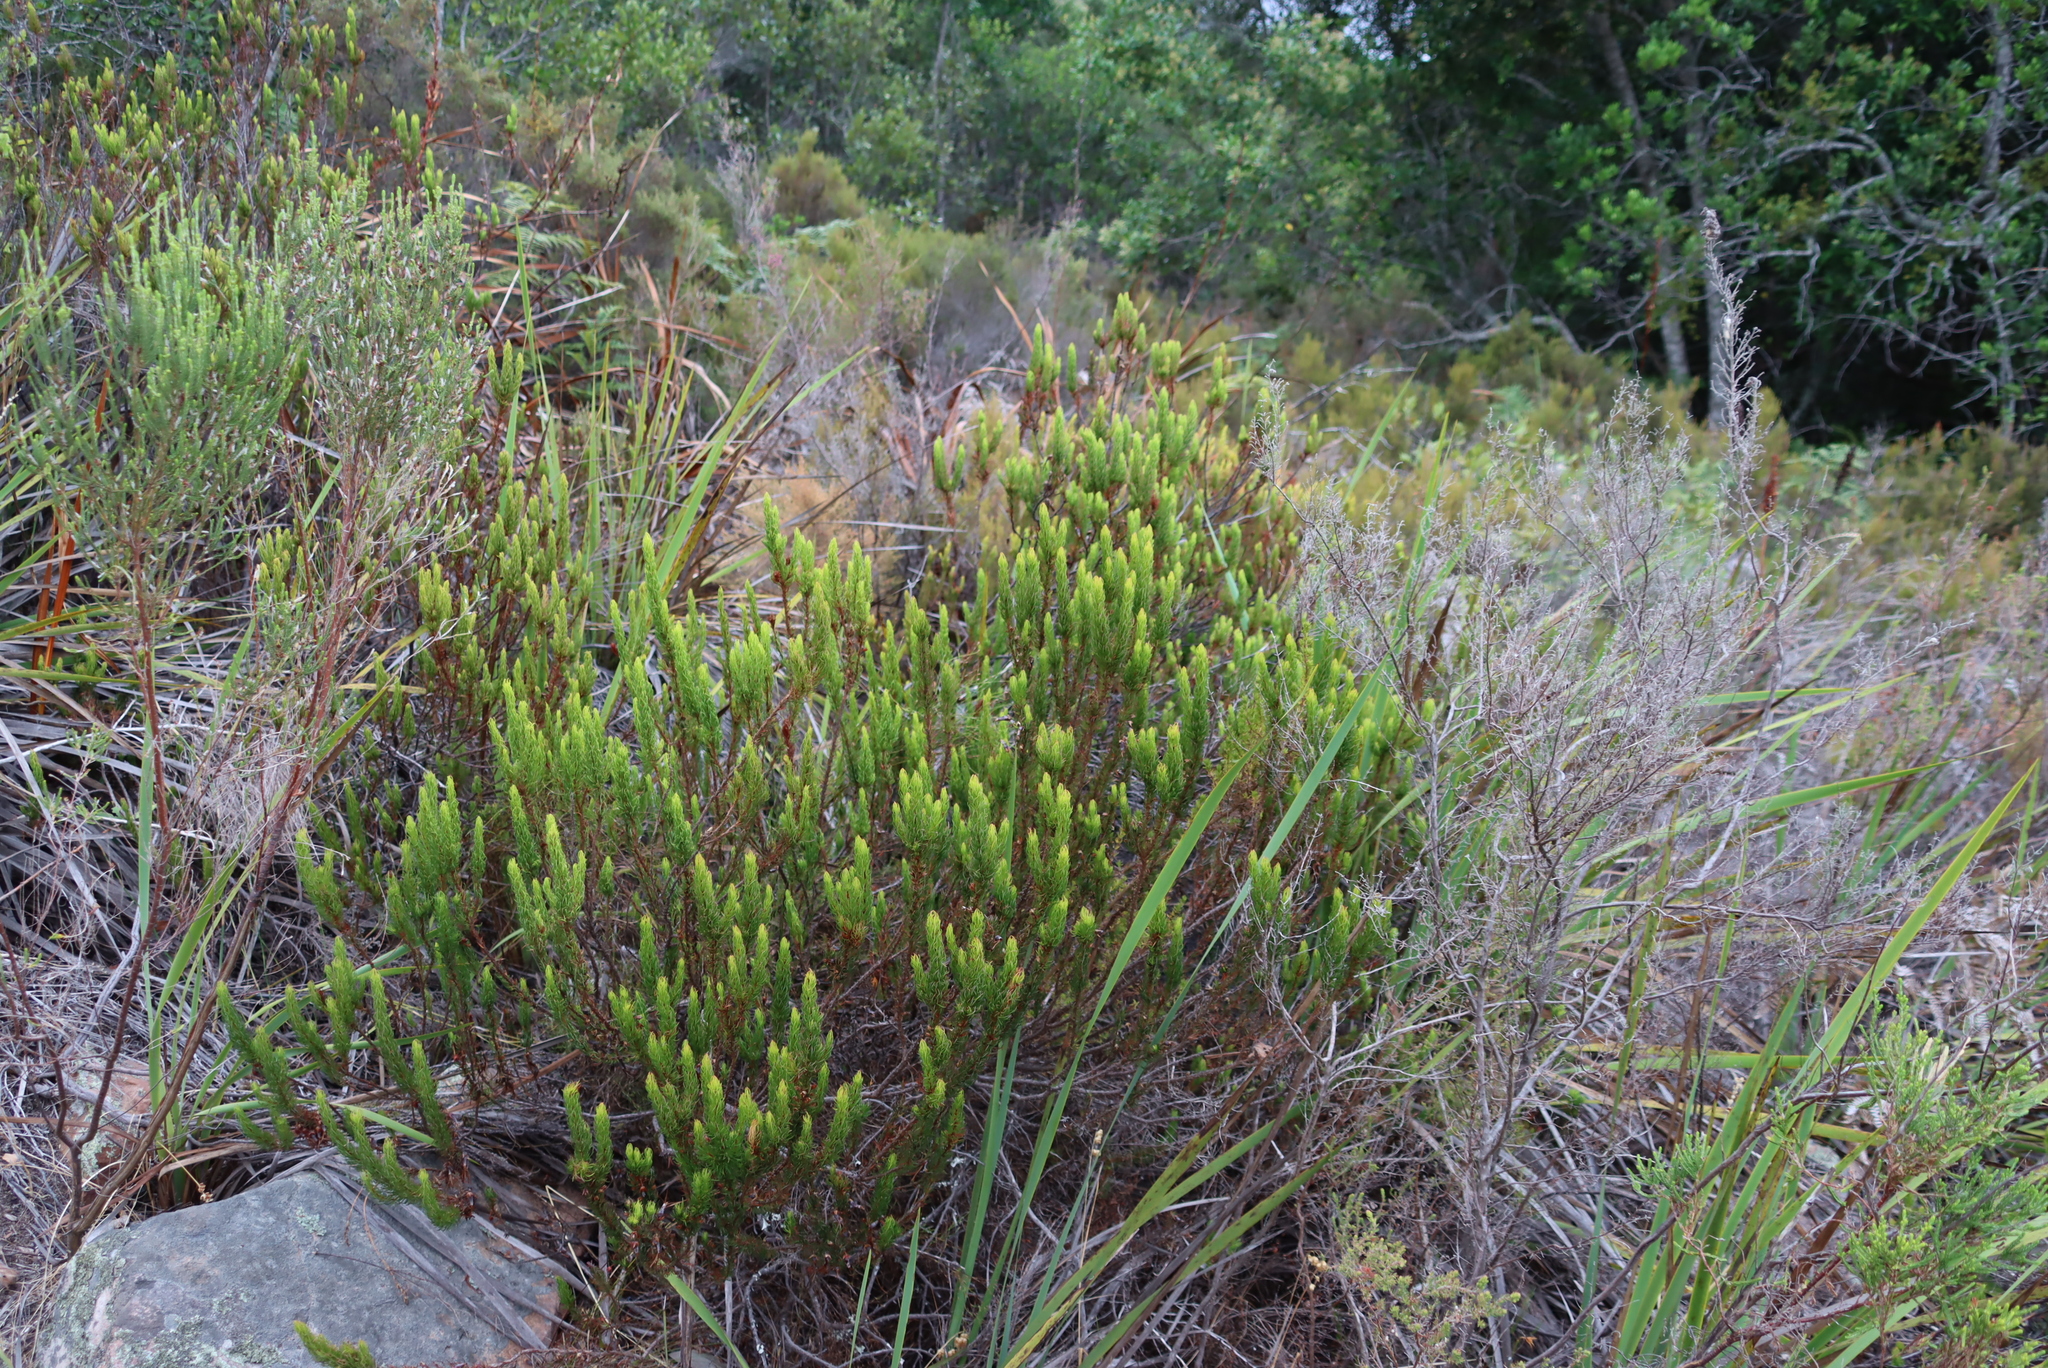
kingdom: Plantae
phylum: Tracheophyta
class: Magnoliopsida
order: Ericales
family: Ericaceae
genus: Erica
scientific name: Erica plukenetii
